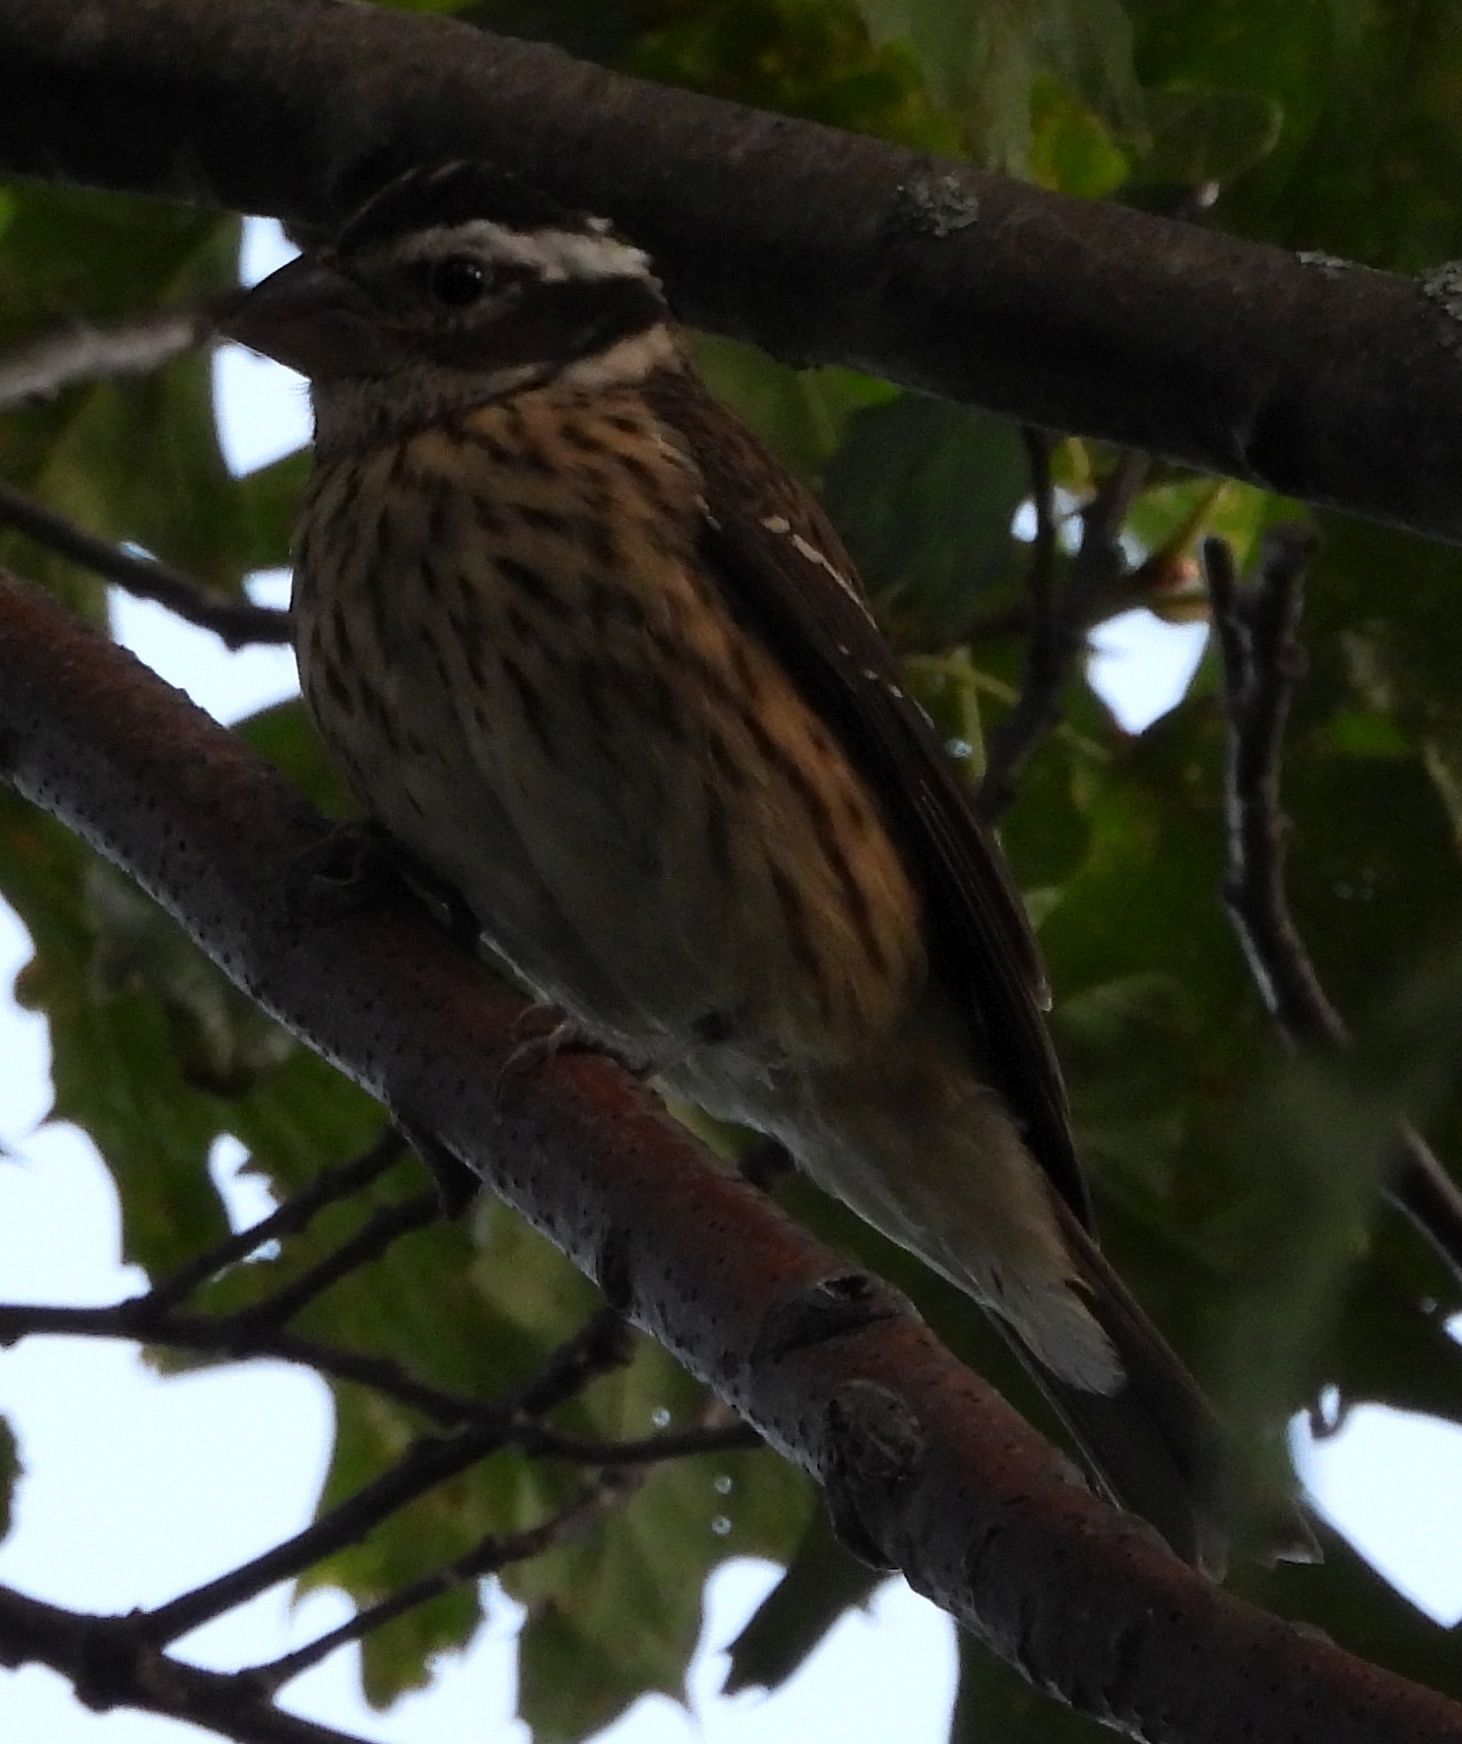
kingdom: Animalia
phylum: Chordata
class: Aves
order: Passeriformes
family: Cardinalidae
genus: Pheucticus
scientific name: Pheucticus ludovicianus
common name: Rose-breasted grosbeak
